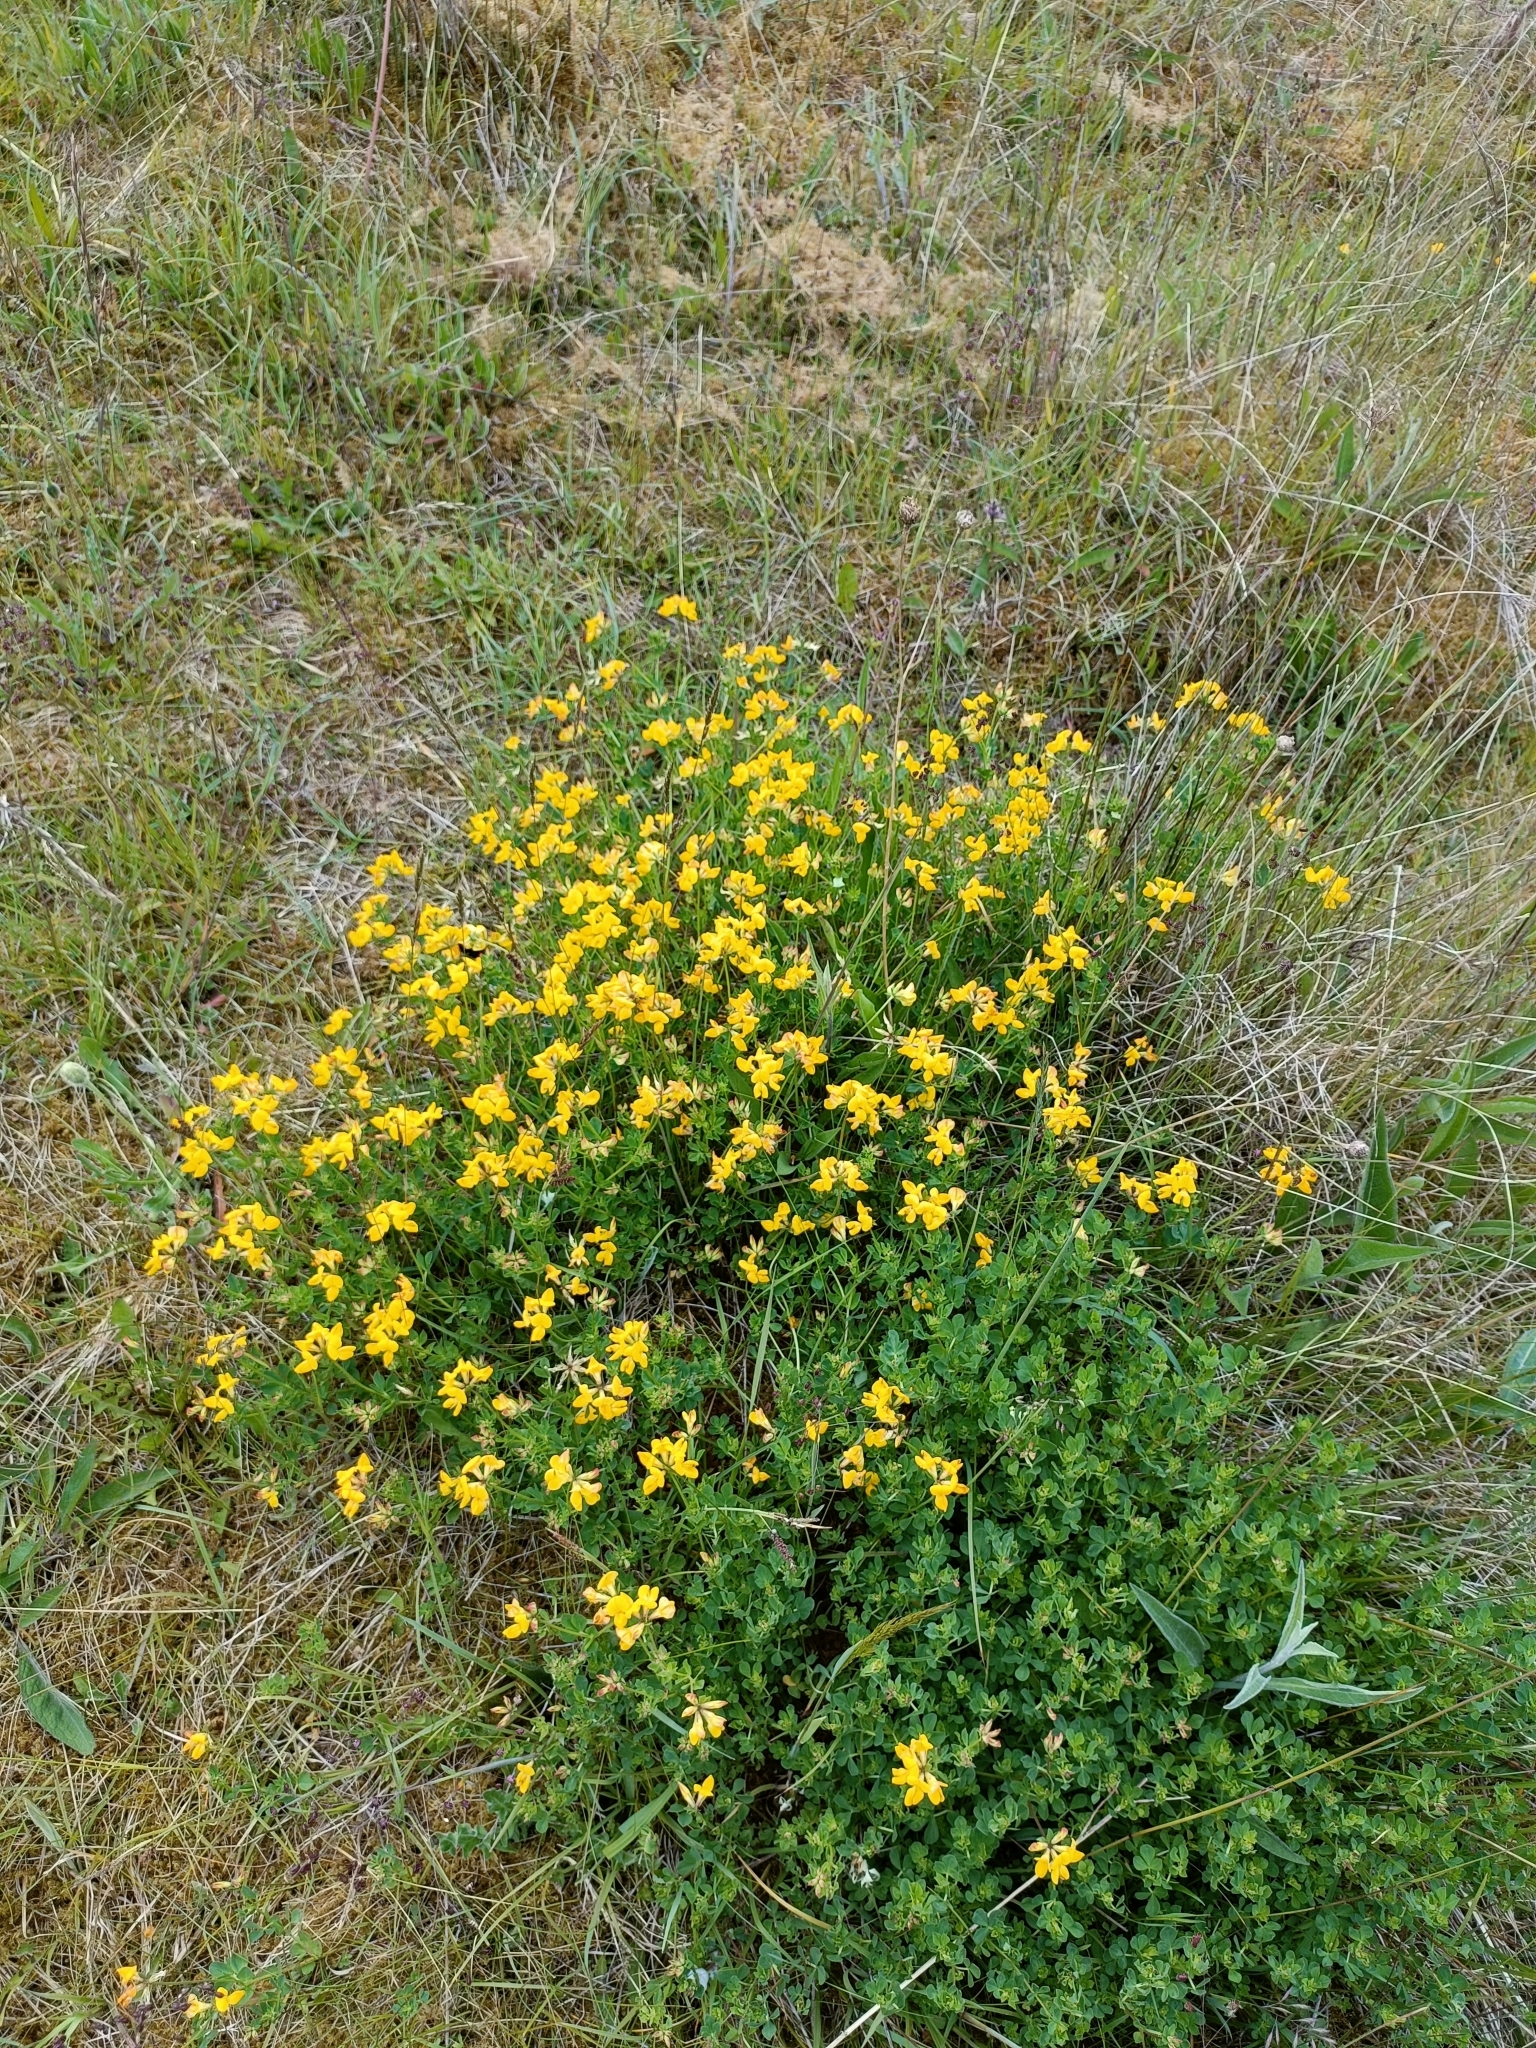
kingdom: Plantae
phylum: Tracheophyta
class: Magnoliopsida
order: Fabales
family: Fabaceae
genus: Lotus
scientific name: Lotus corniculatus
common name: Common bird's-foot-trefoil
